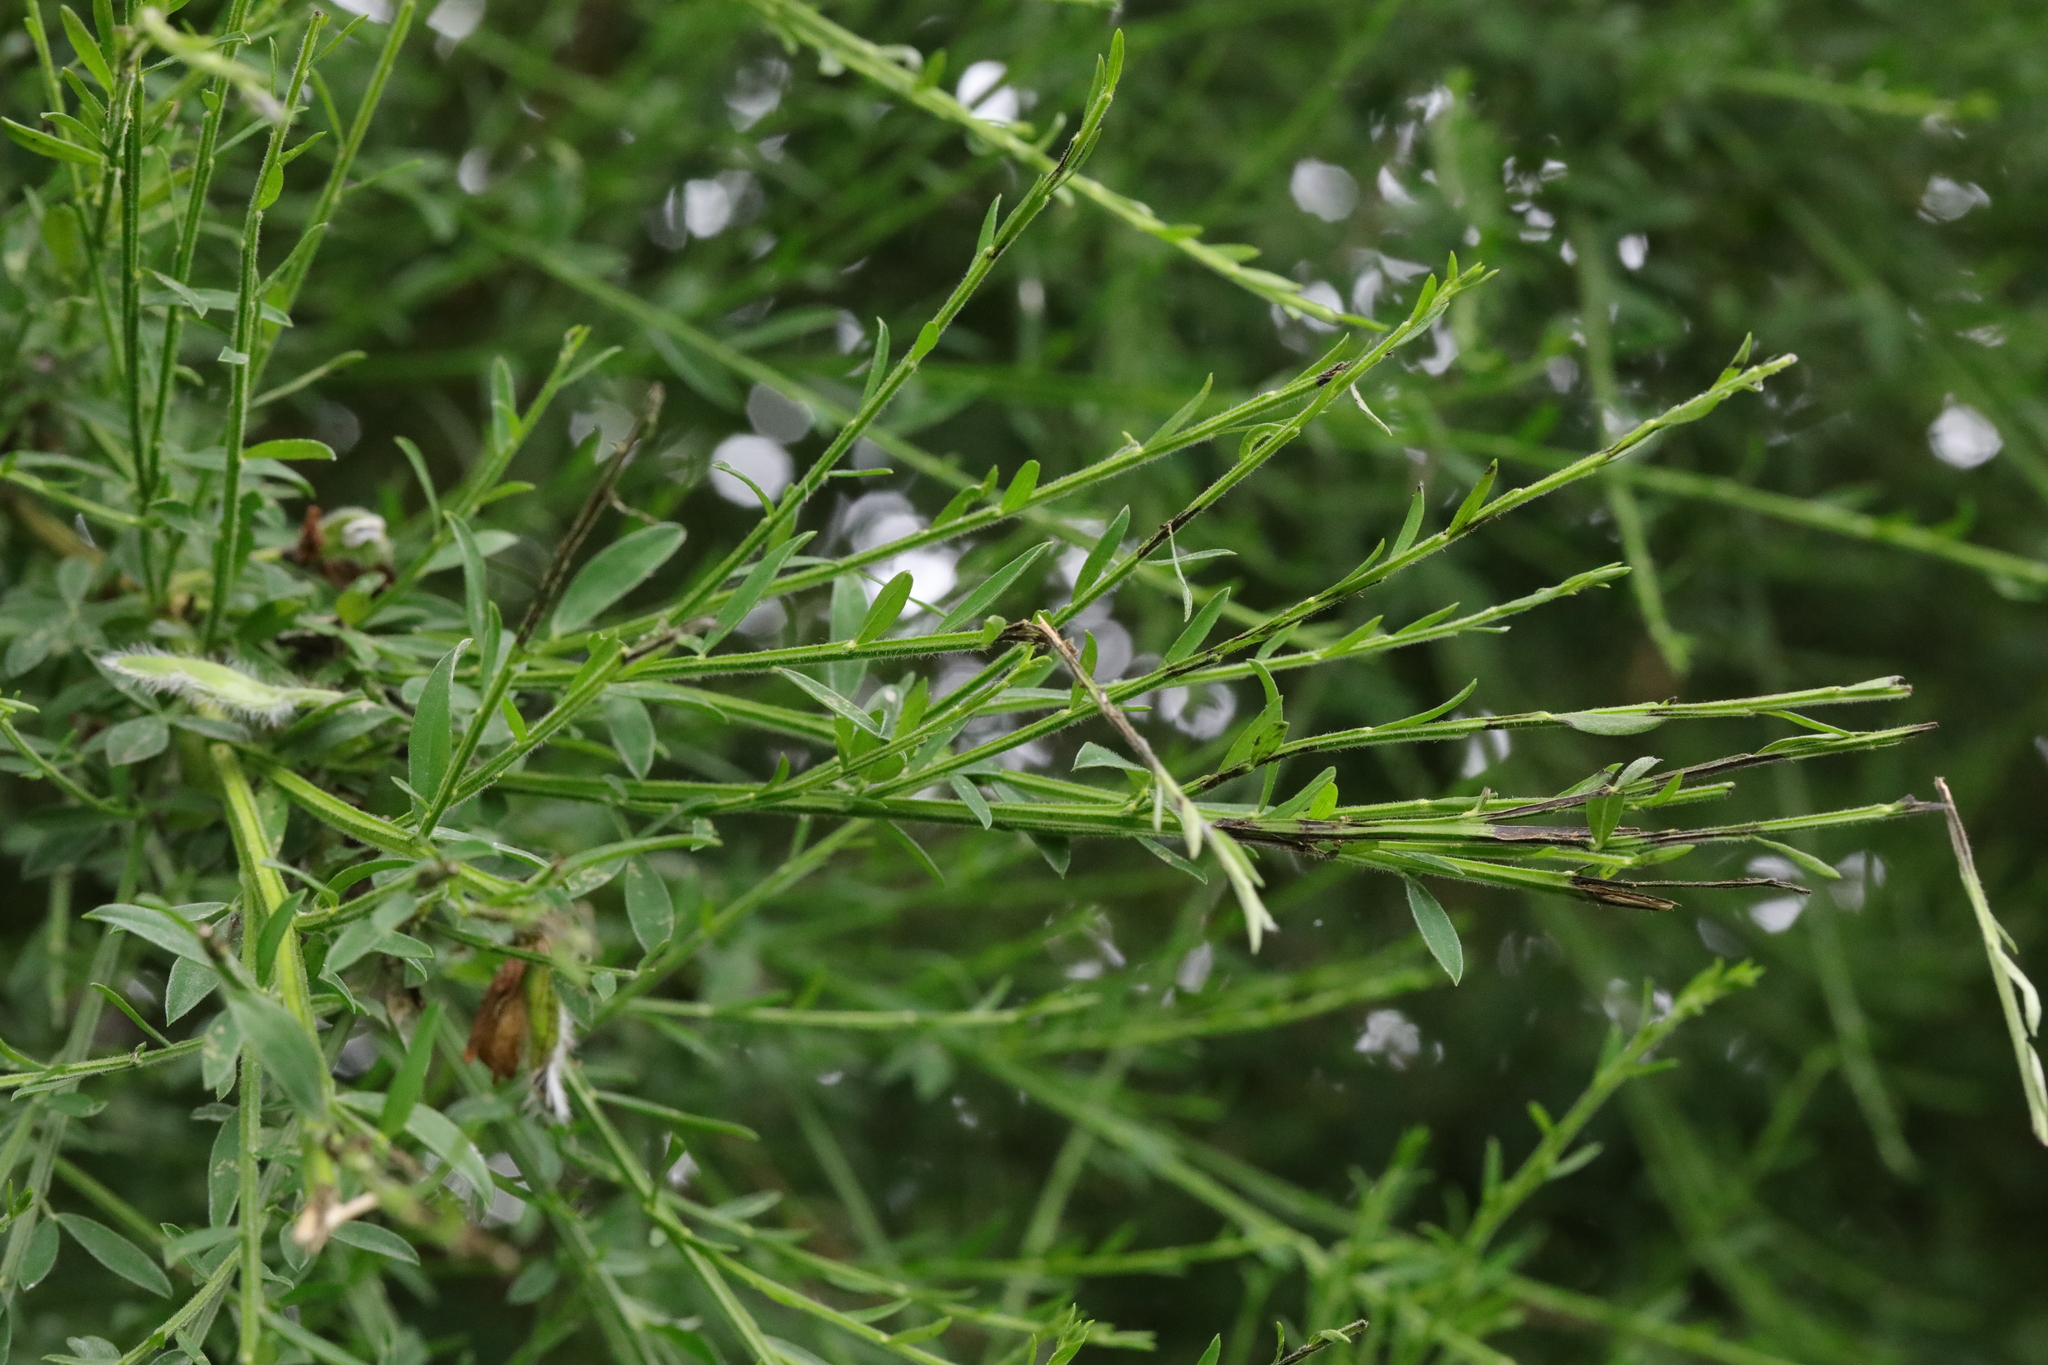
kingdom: Plantae
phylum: Tracheophyta
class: Magnoliopsida
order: Fabales
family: Fabaceae
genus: Cytisus
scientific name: Cytisus scoparius
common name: Scotch broom
